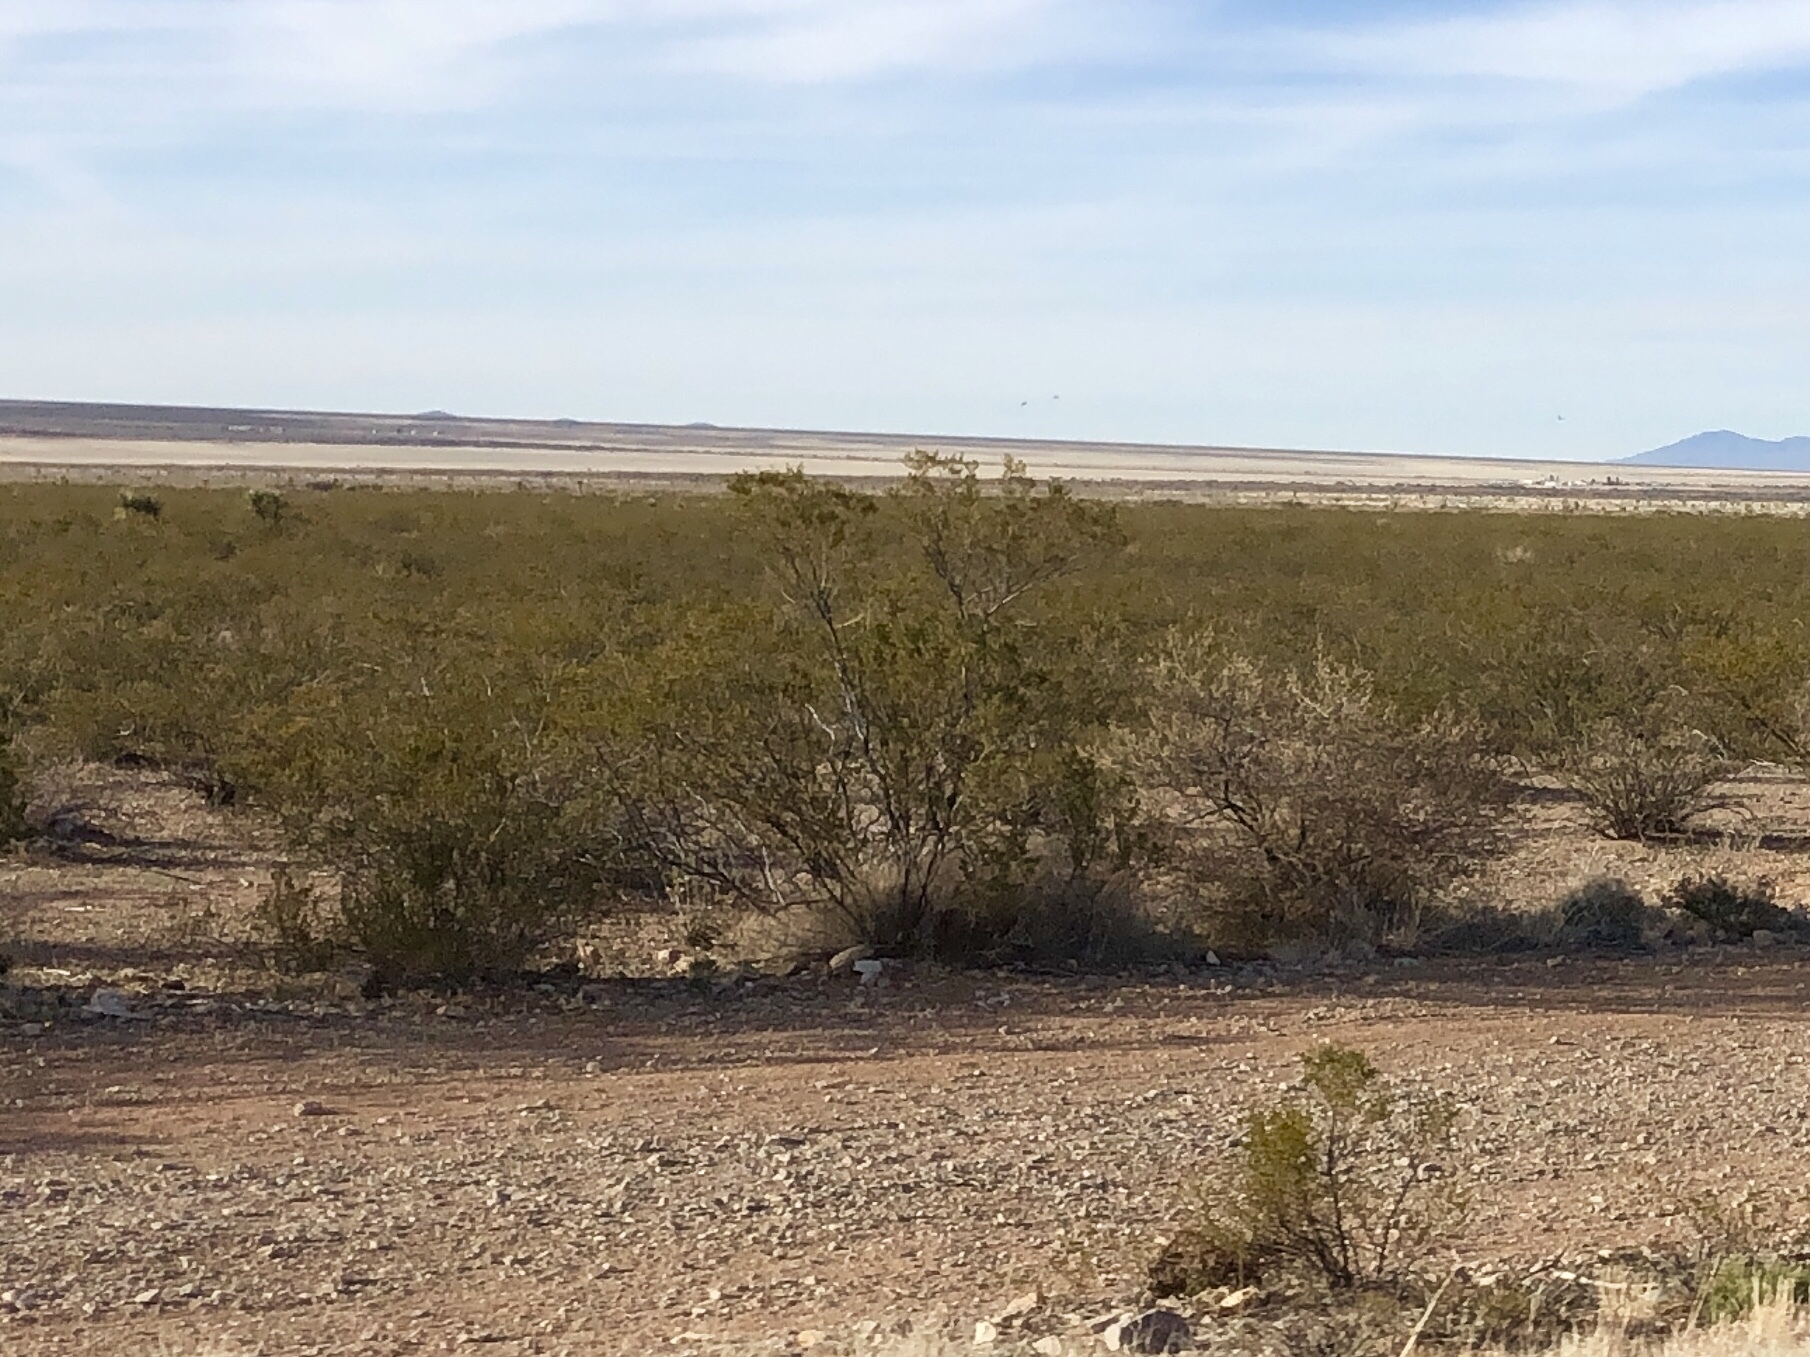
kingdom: Plantae
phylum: Tracheophyta
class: Magnoliopsida
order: Zygophyllales
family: Zygophyllaceae
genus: Larrea
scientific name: Larrea tridentata
